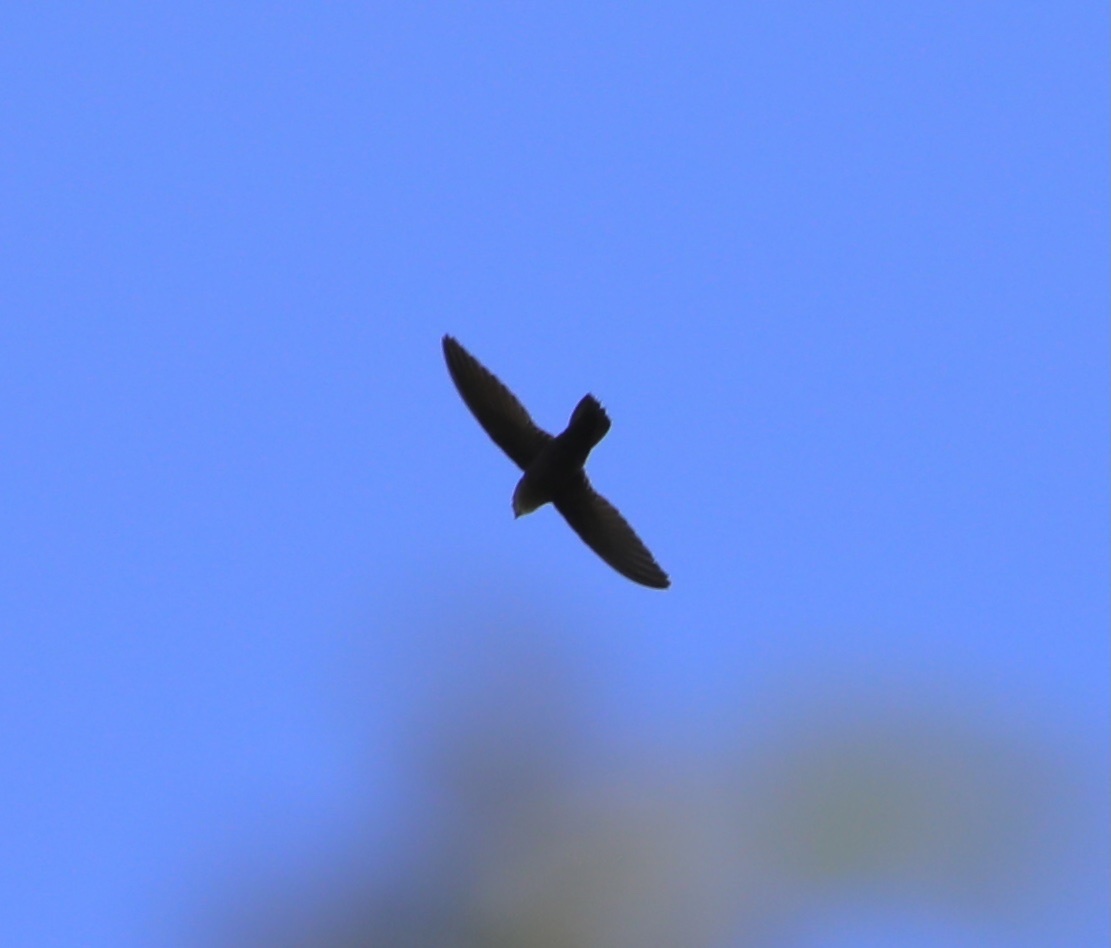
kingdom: Animalia
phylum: Chordata
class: Aves
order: Apodiformes
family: Apodidae
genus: Chaetura
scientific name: Chaetura vauxi
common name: Vaux's swift
